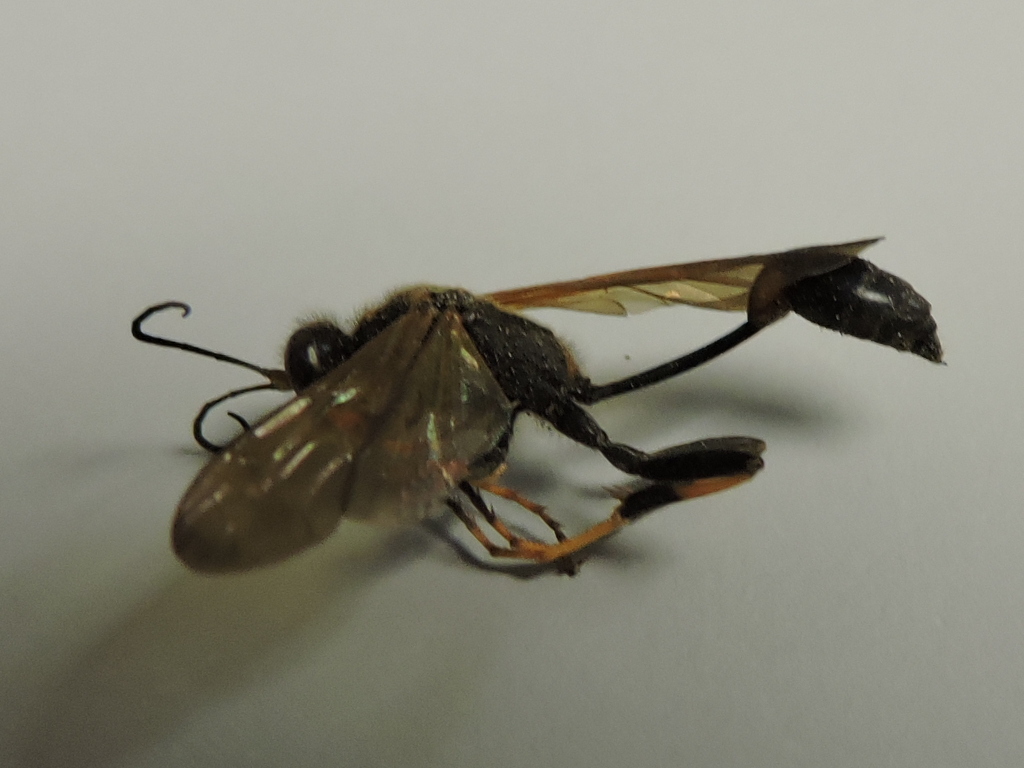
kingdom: Animalia
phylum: Arthropoda
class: Insecta
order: Hymenoptera
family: Sphecidae
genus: Sceliphron
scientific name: Sceliphron caementarium
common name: Mud dauber
